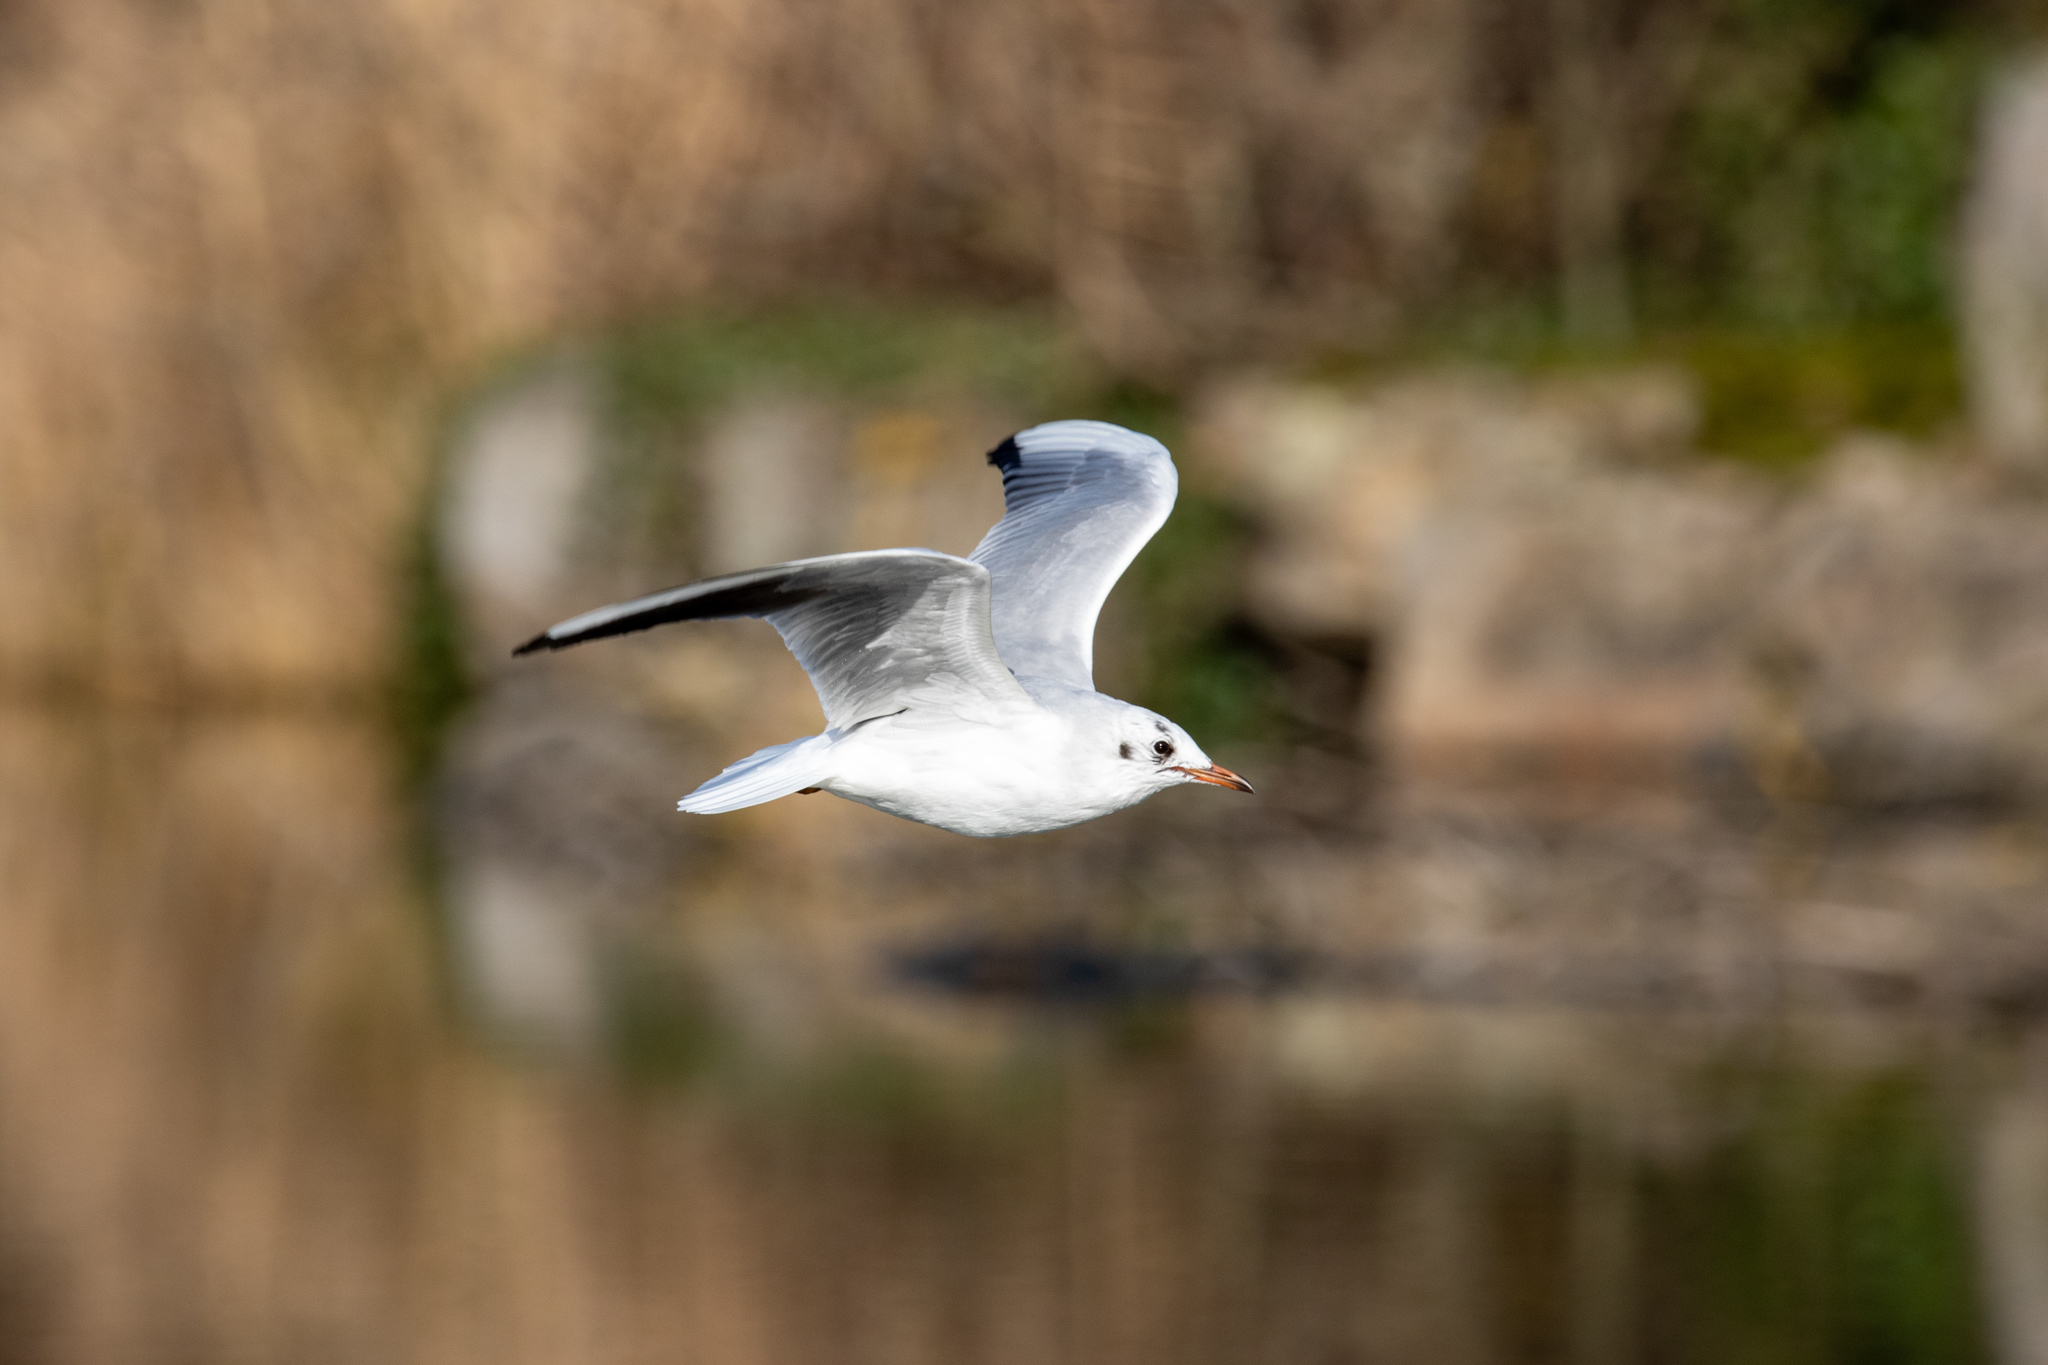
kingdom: Animalia
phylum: Chordata
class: Aves
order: Charadriiformes
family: Laridae
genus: Chroicocephalus
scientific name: Chroicocephalus ridibundus
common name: Black-headed gull
